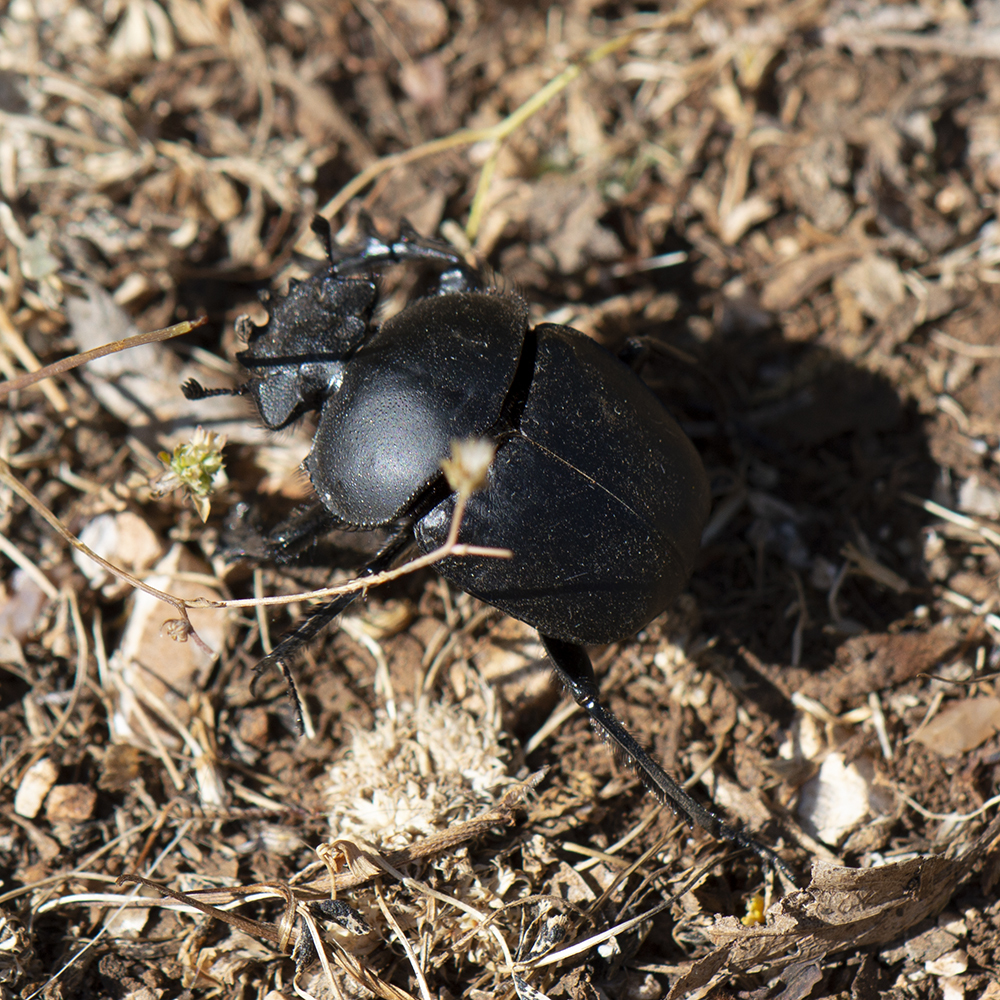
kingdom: Animalia
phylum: Arthropoda
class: Insecta
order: Coleoptera
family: Scarabaeidae
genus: Scarabaeus
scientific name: Scarabaeus pius
